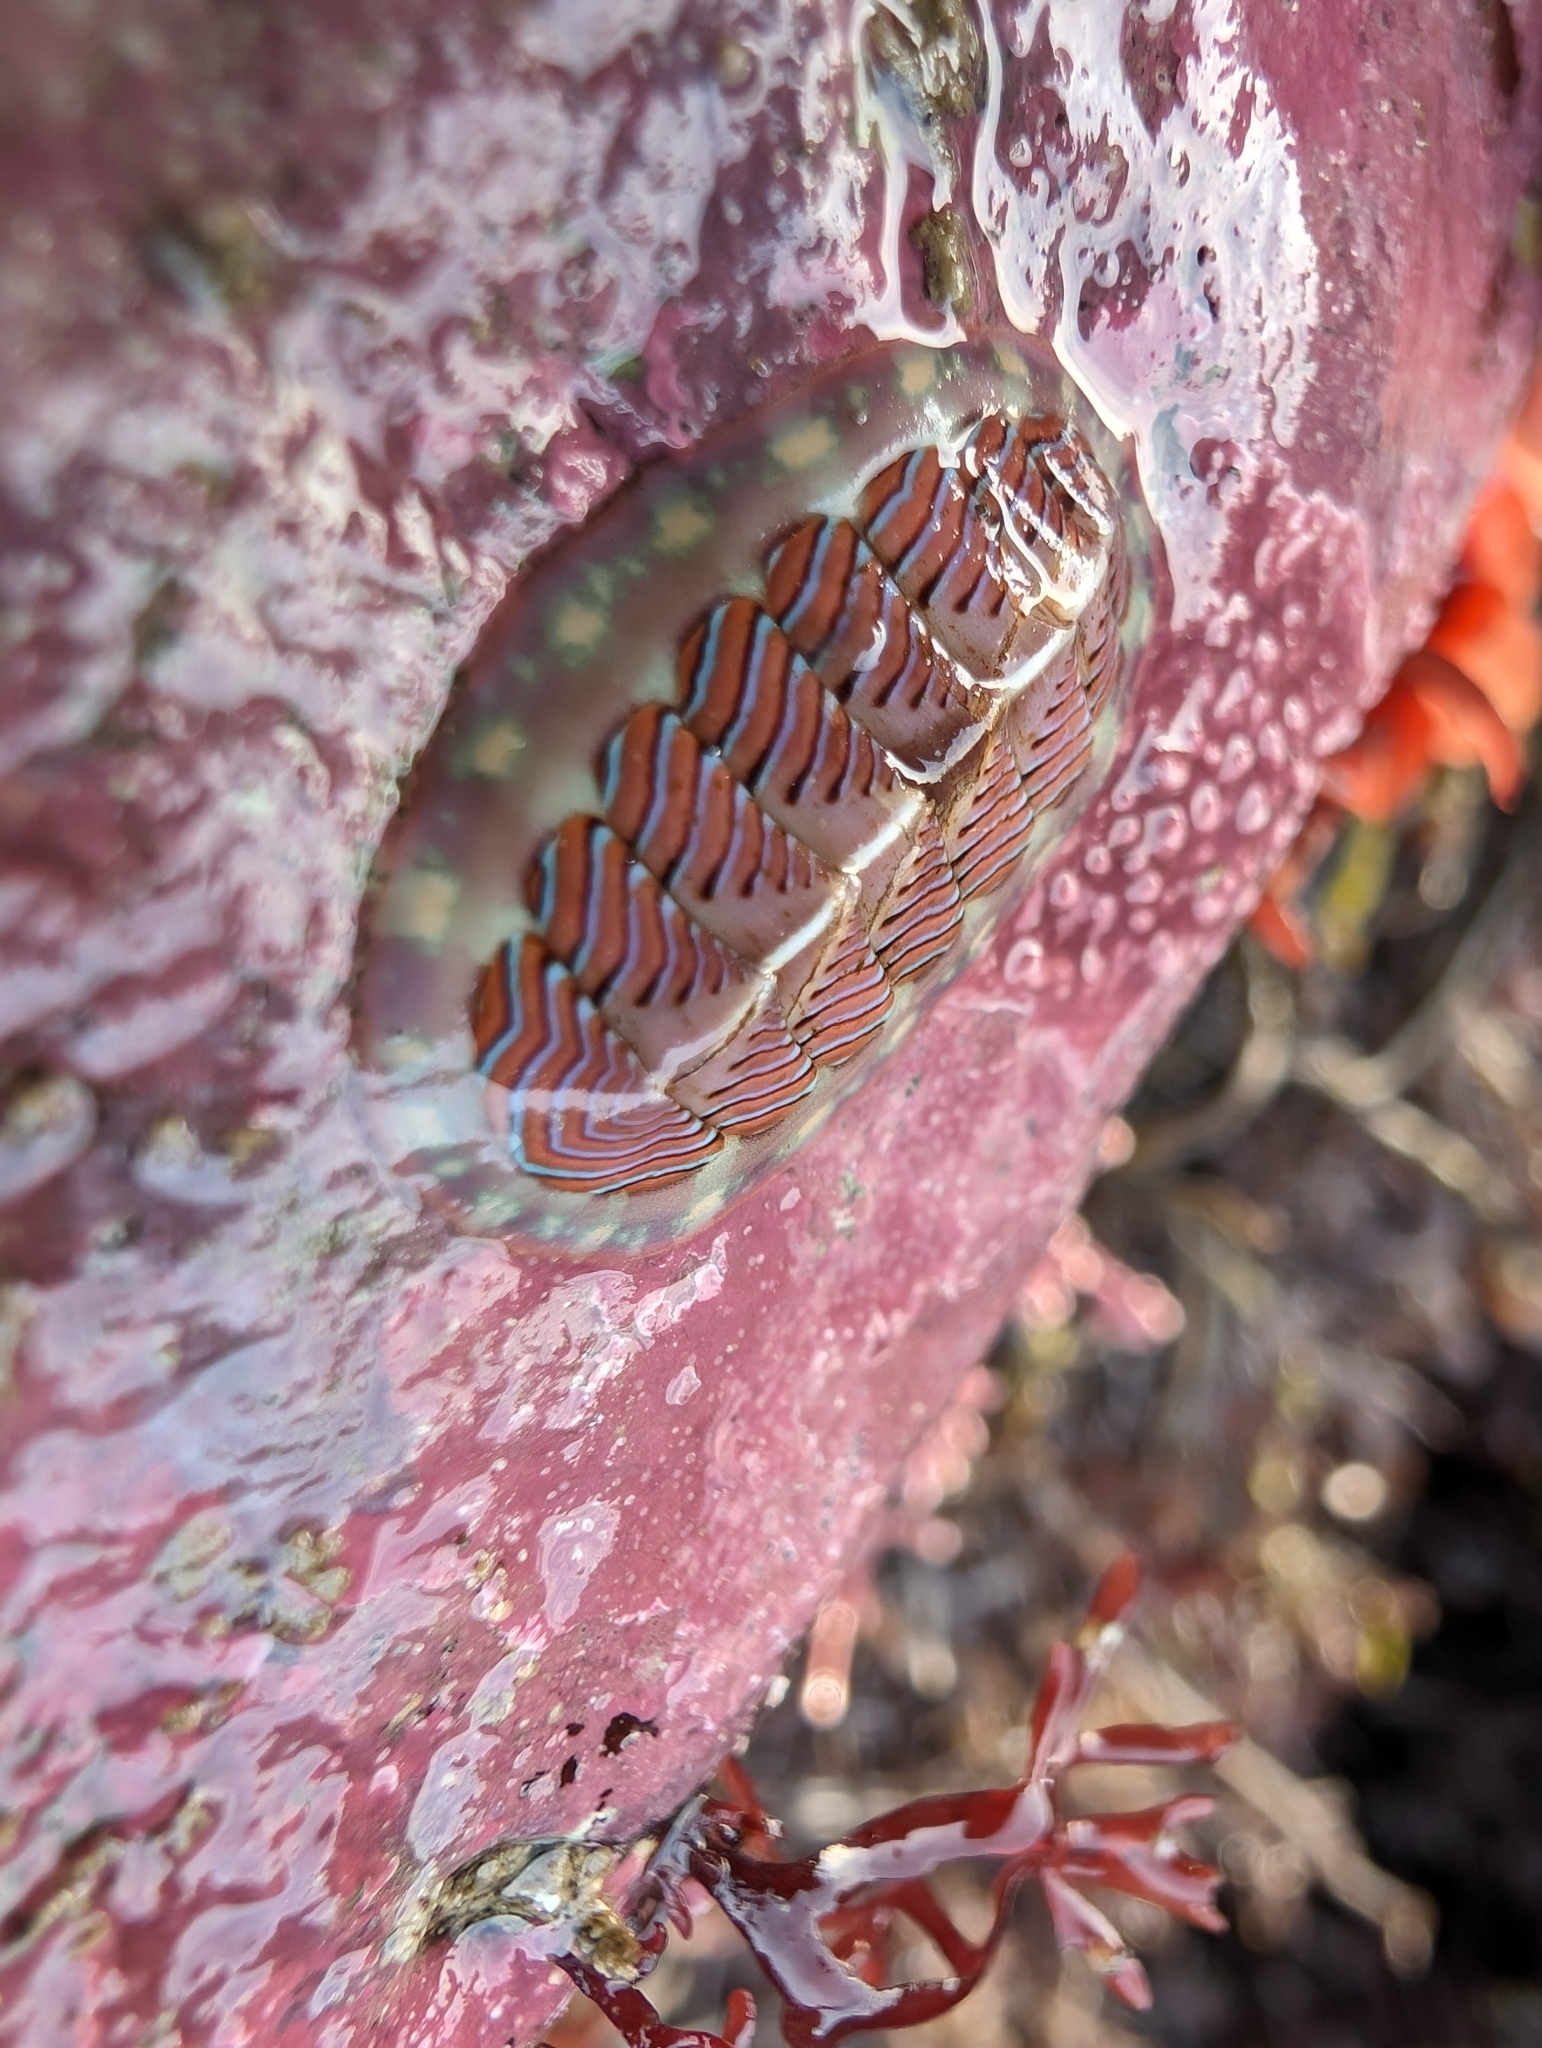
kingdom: Animalia
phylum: Mollusca
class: Polyplacophora
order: Chitonida
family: Tonicellidae
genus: Tonicella
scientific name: Tonicella lineata
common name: Lined chiton
